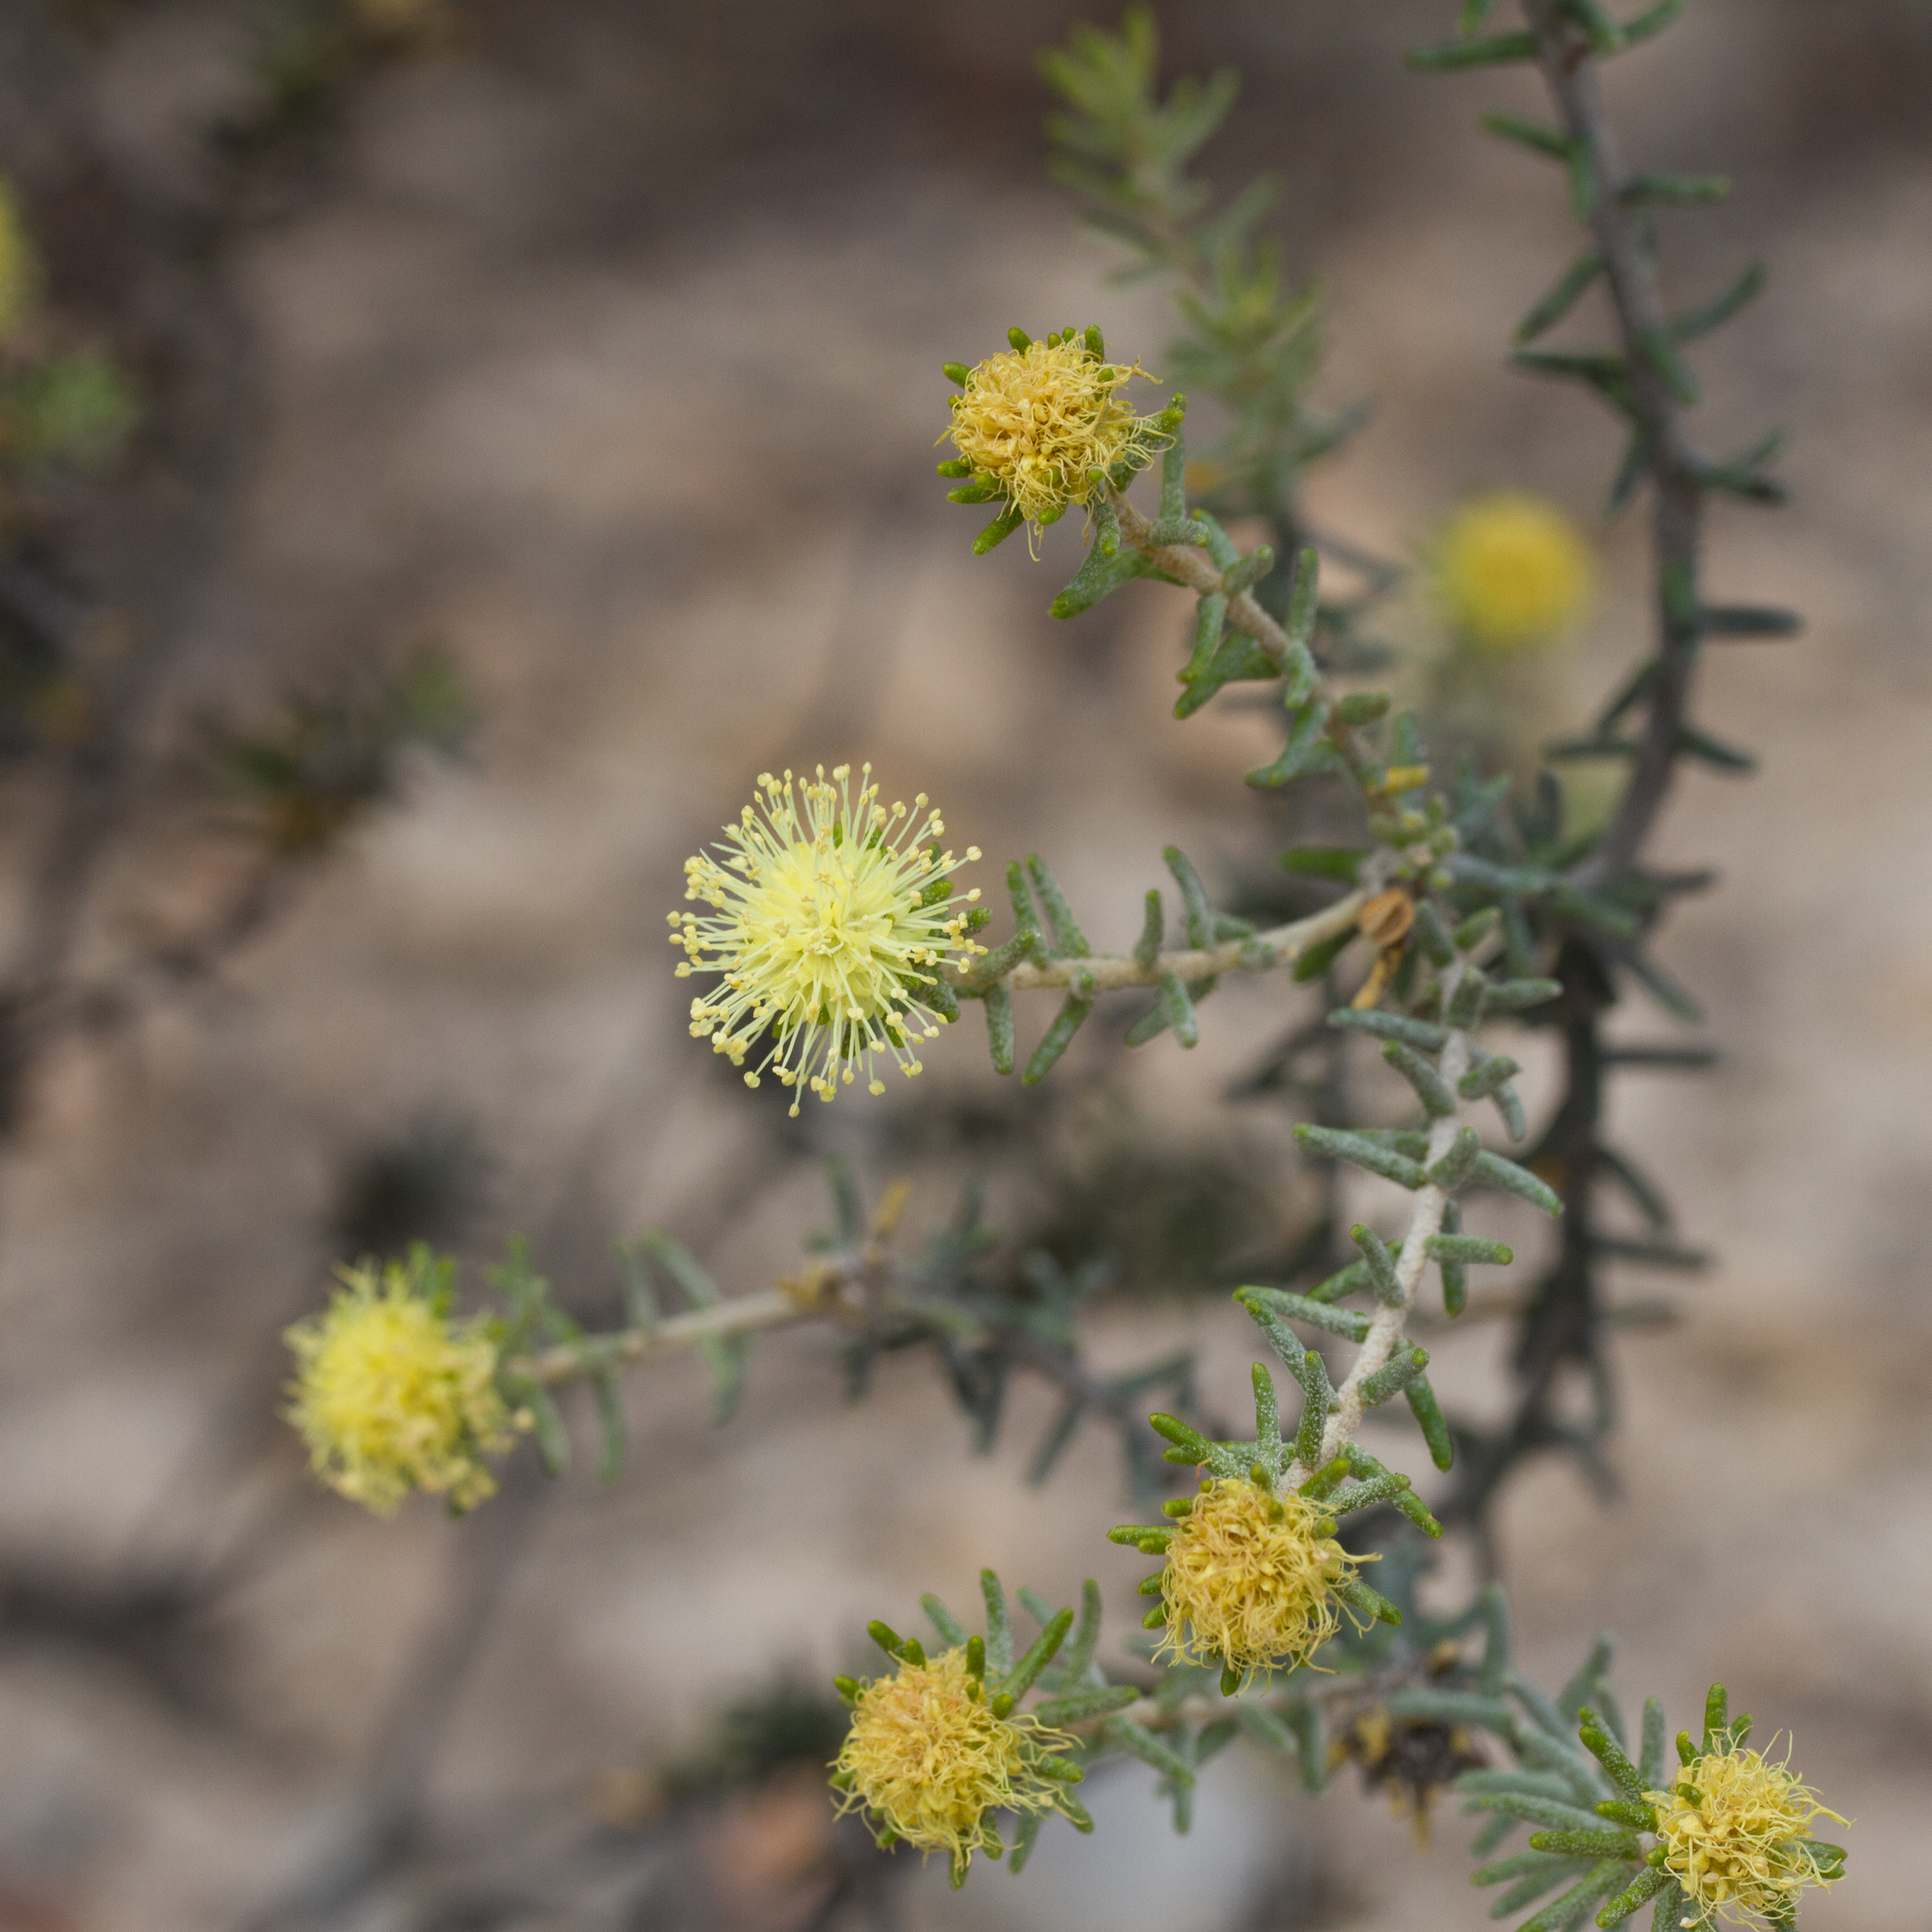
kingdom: Plantae
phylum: Tracheophyta
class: Magnoliopsida
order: Sapindales
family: Rutaceae
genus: Microcybe
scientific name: Microcybe pauciflora
